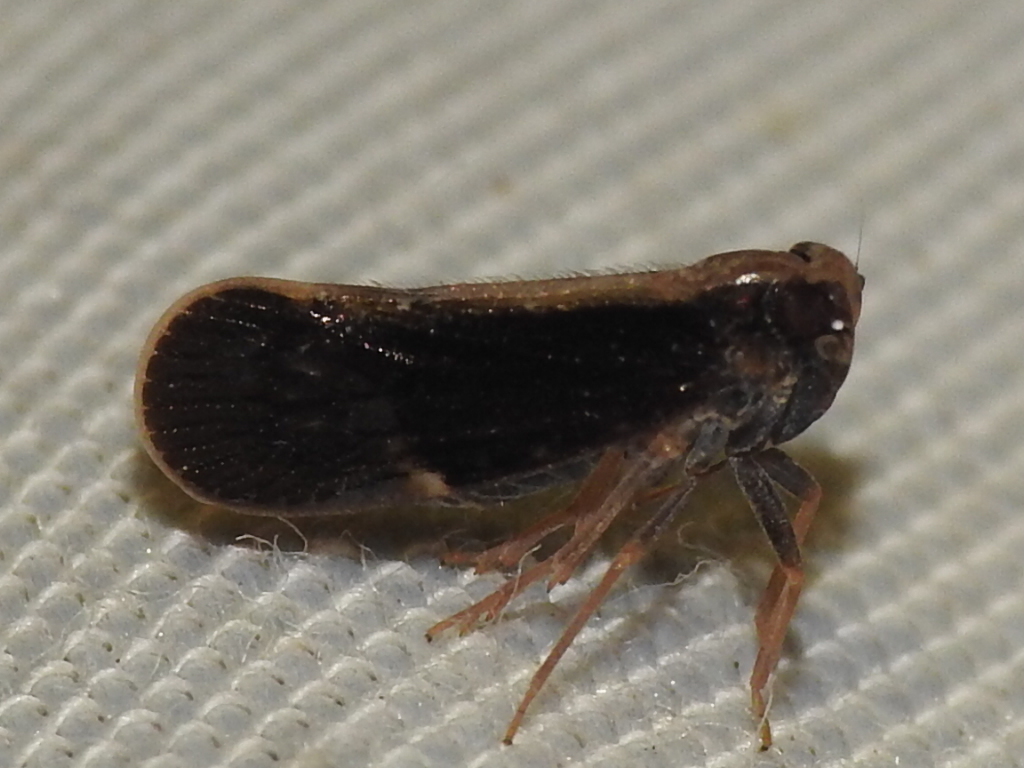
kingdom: Animalia
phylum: Arthropoda
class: Insecta
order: Hemiptera
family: Cixiidae
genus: Pintalia
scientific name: Pintalia delicata
